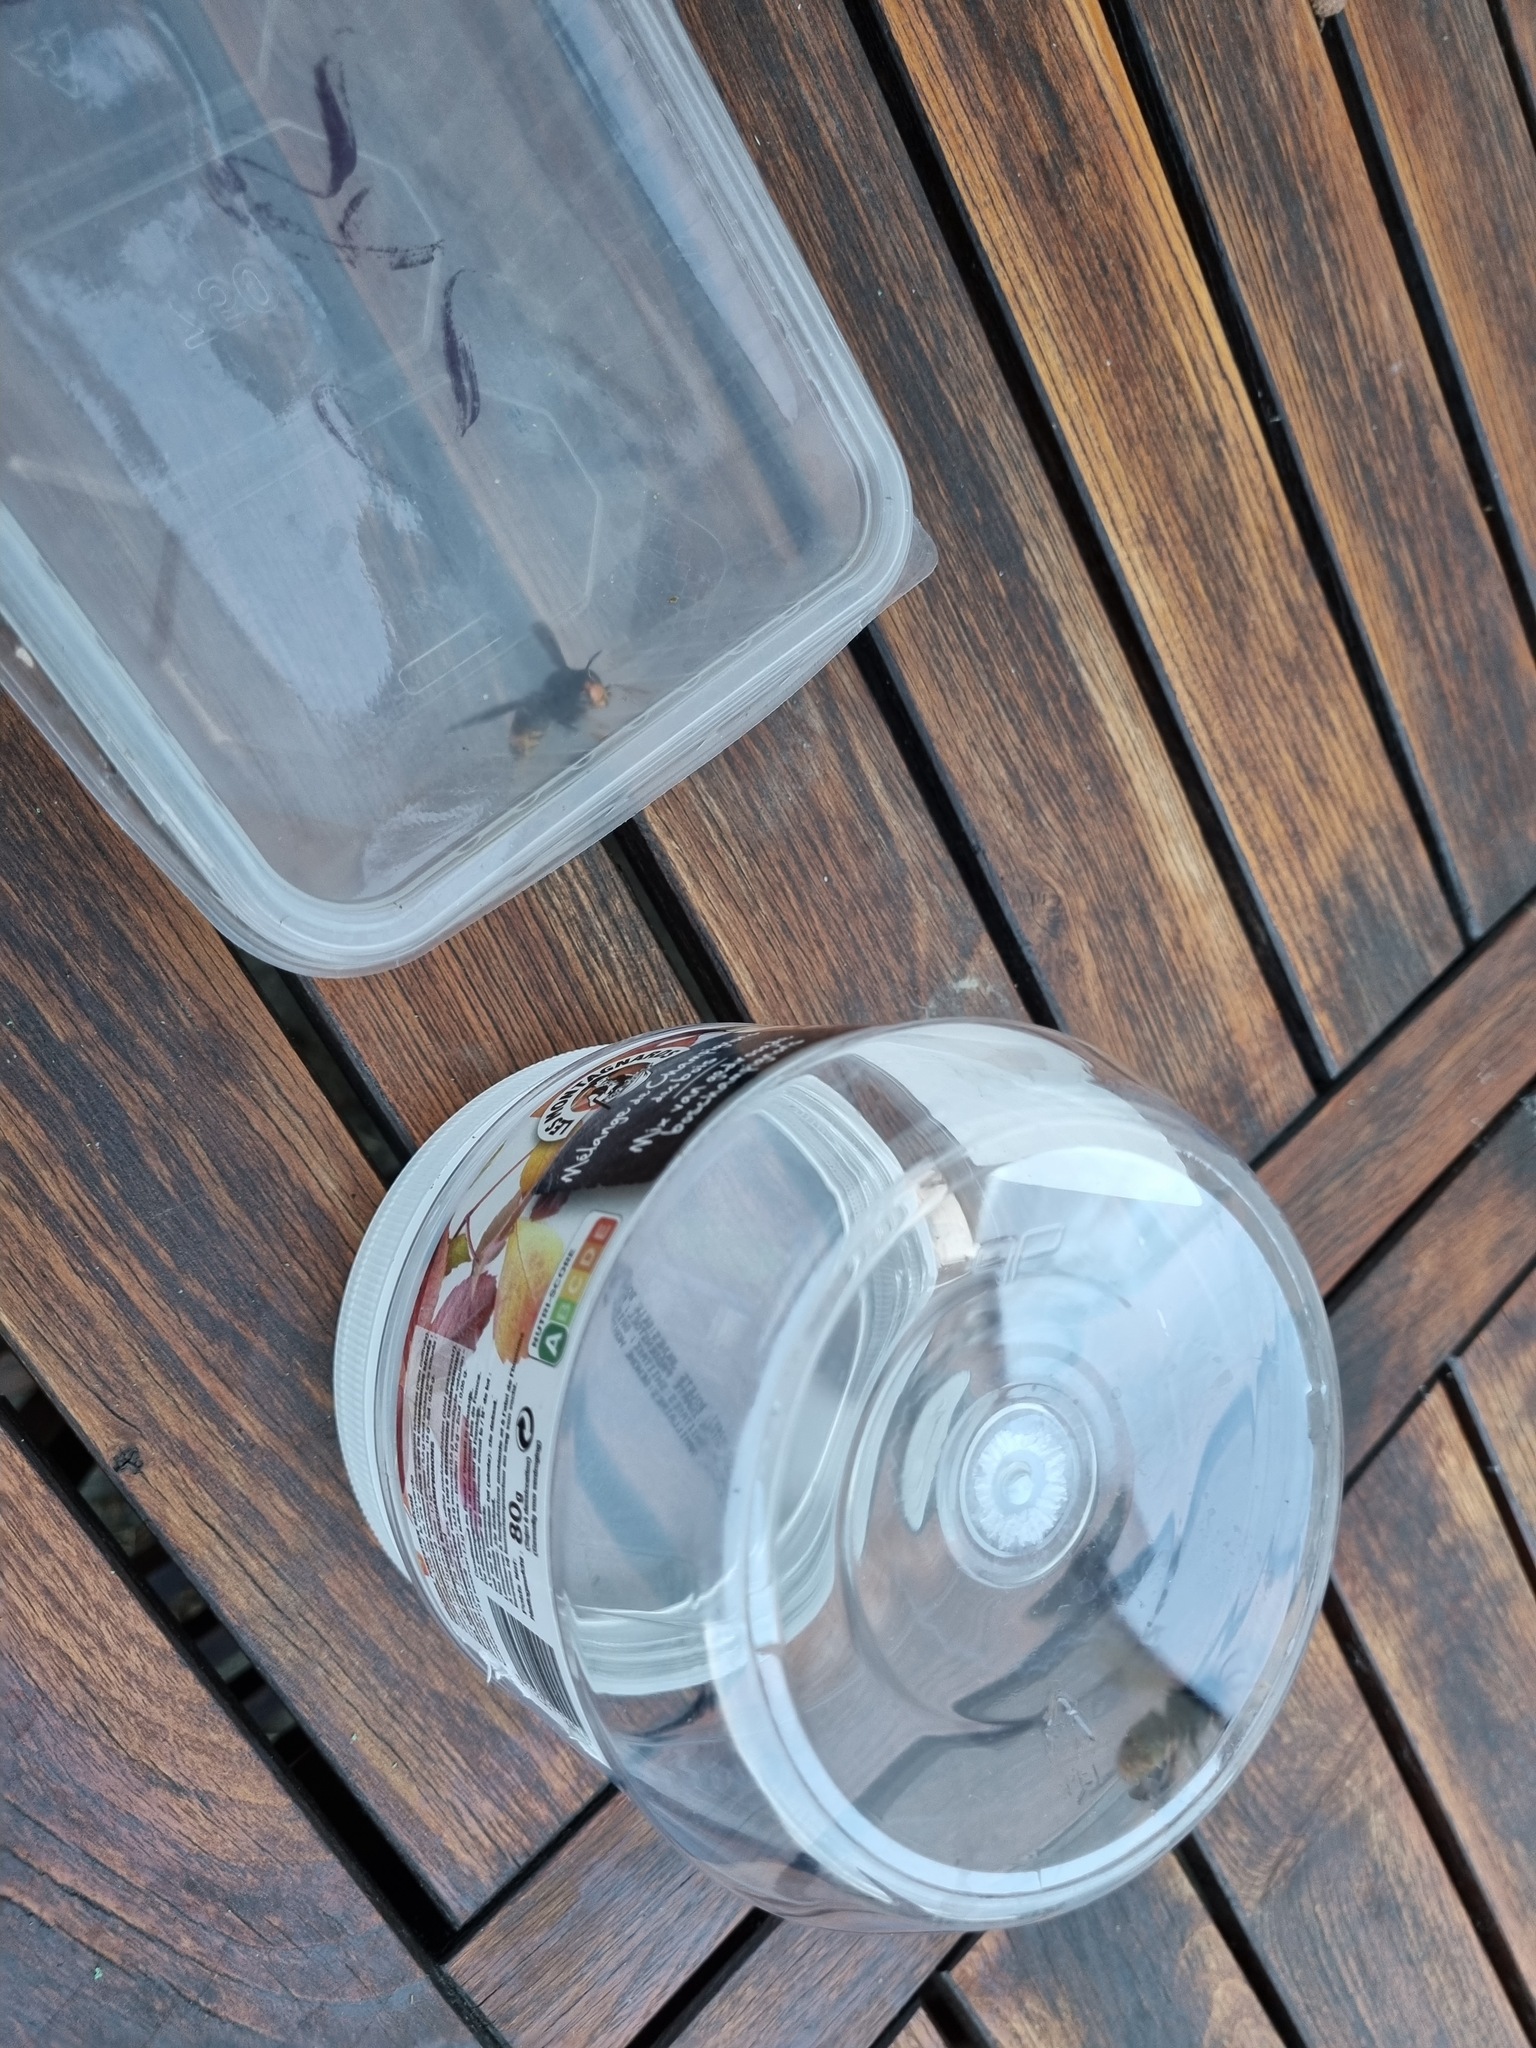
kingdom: Animalia
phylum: Arthropoda
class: Insecta
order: Hymenoptera
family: Vespidae
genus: Vespa
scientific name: Vespa velutina
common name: Asian hornet
